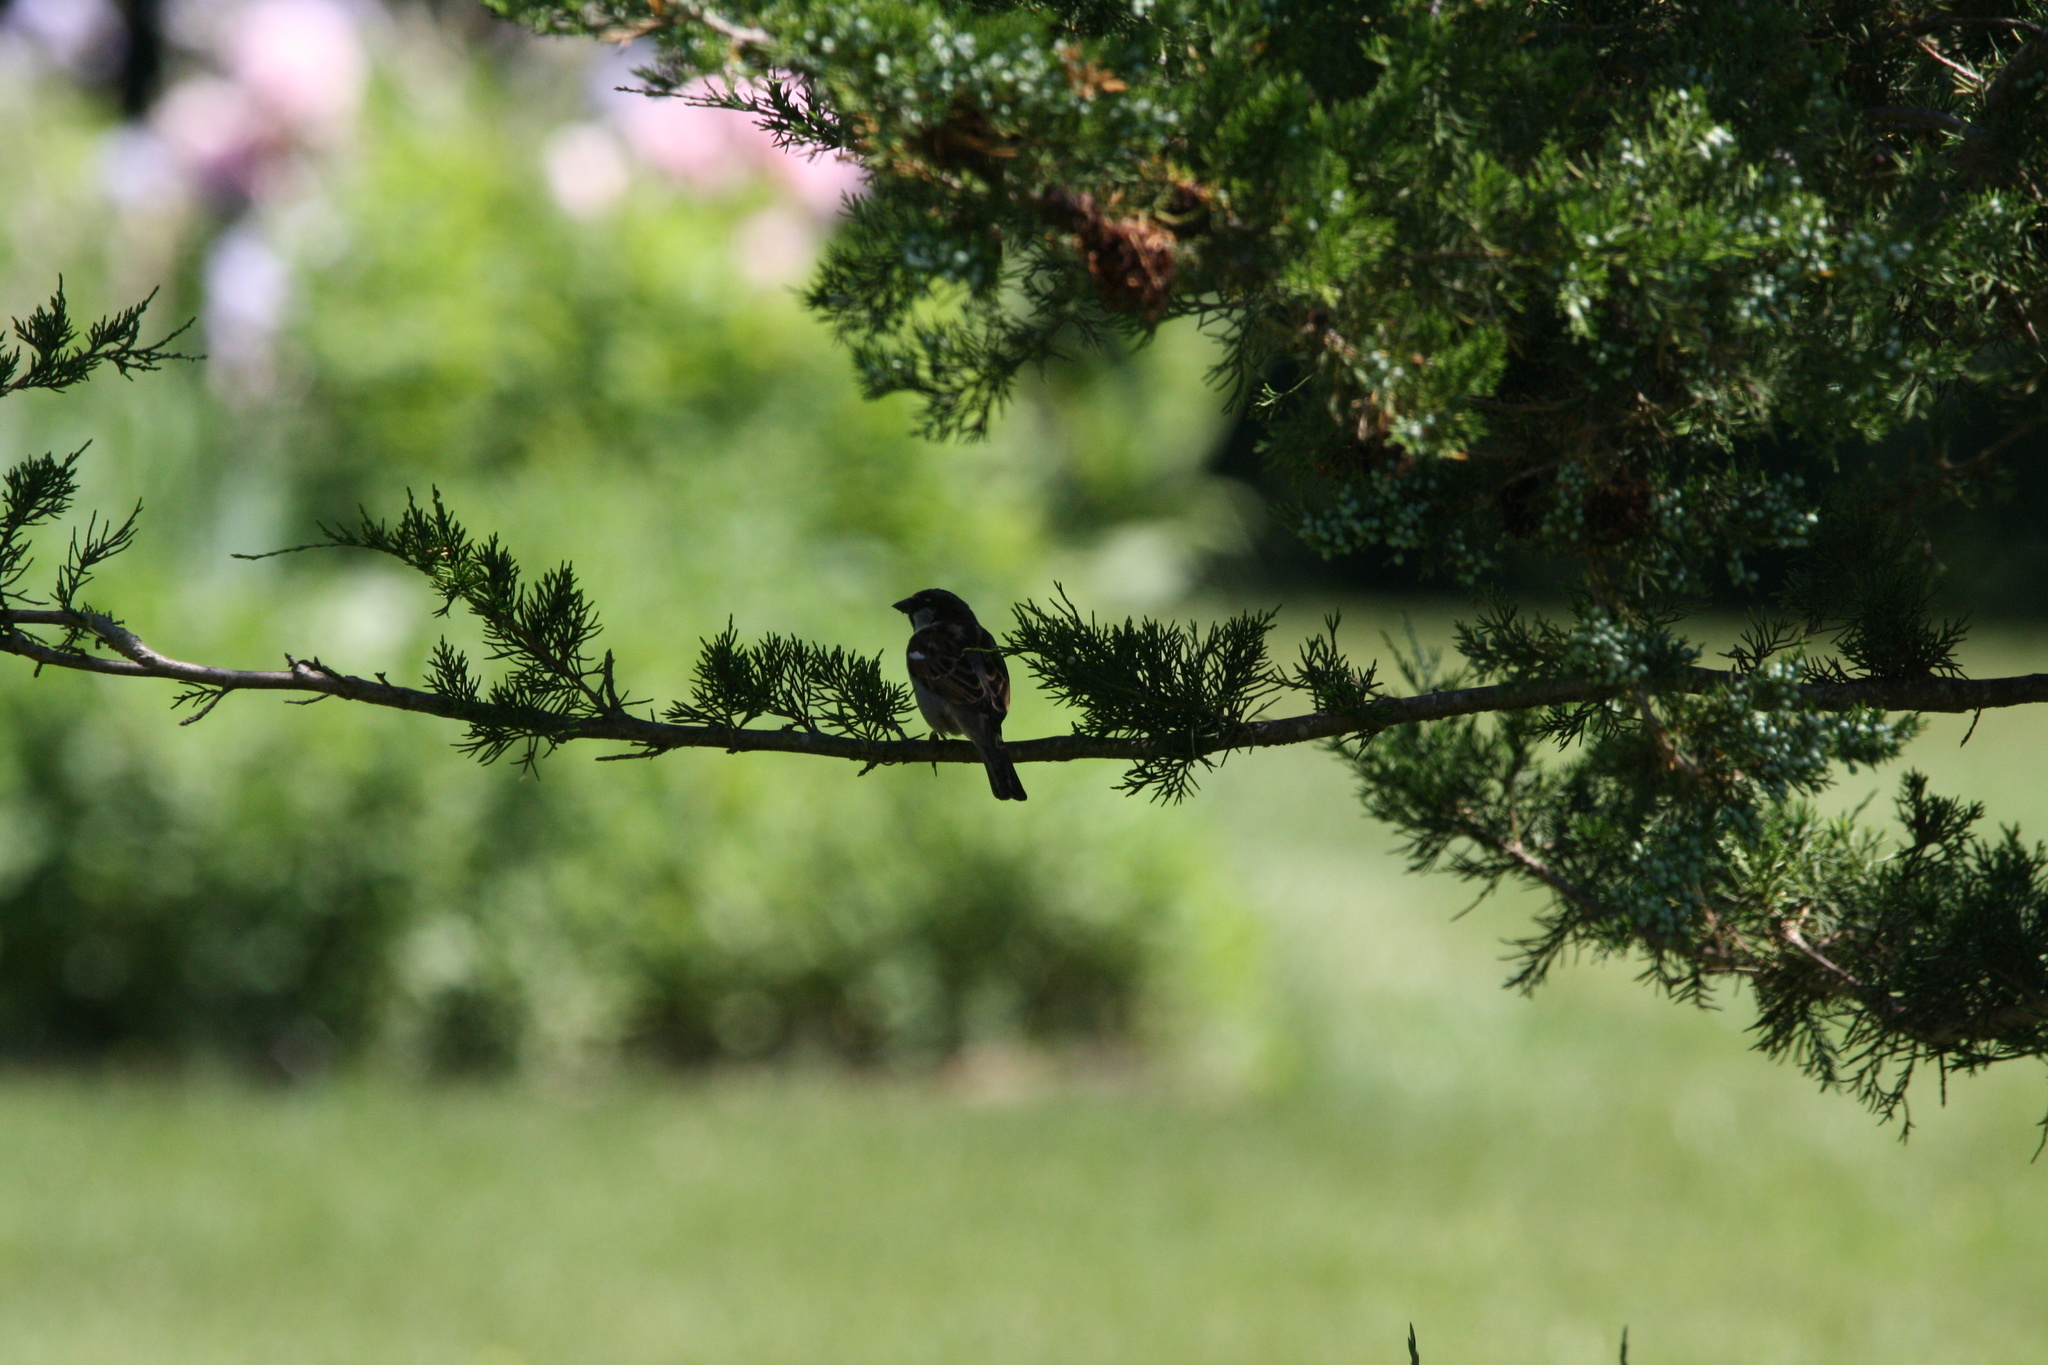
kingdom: Animalia
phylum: Chordata
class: Aves
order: Passeriformes
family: Passeridae
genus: Passer
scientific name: Passer domesticus
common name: House sparrow
